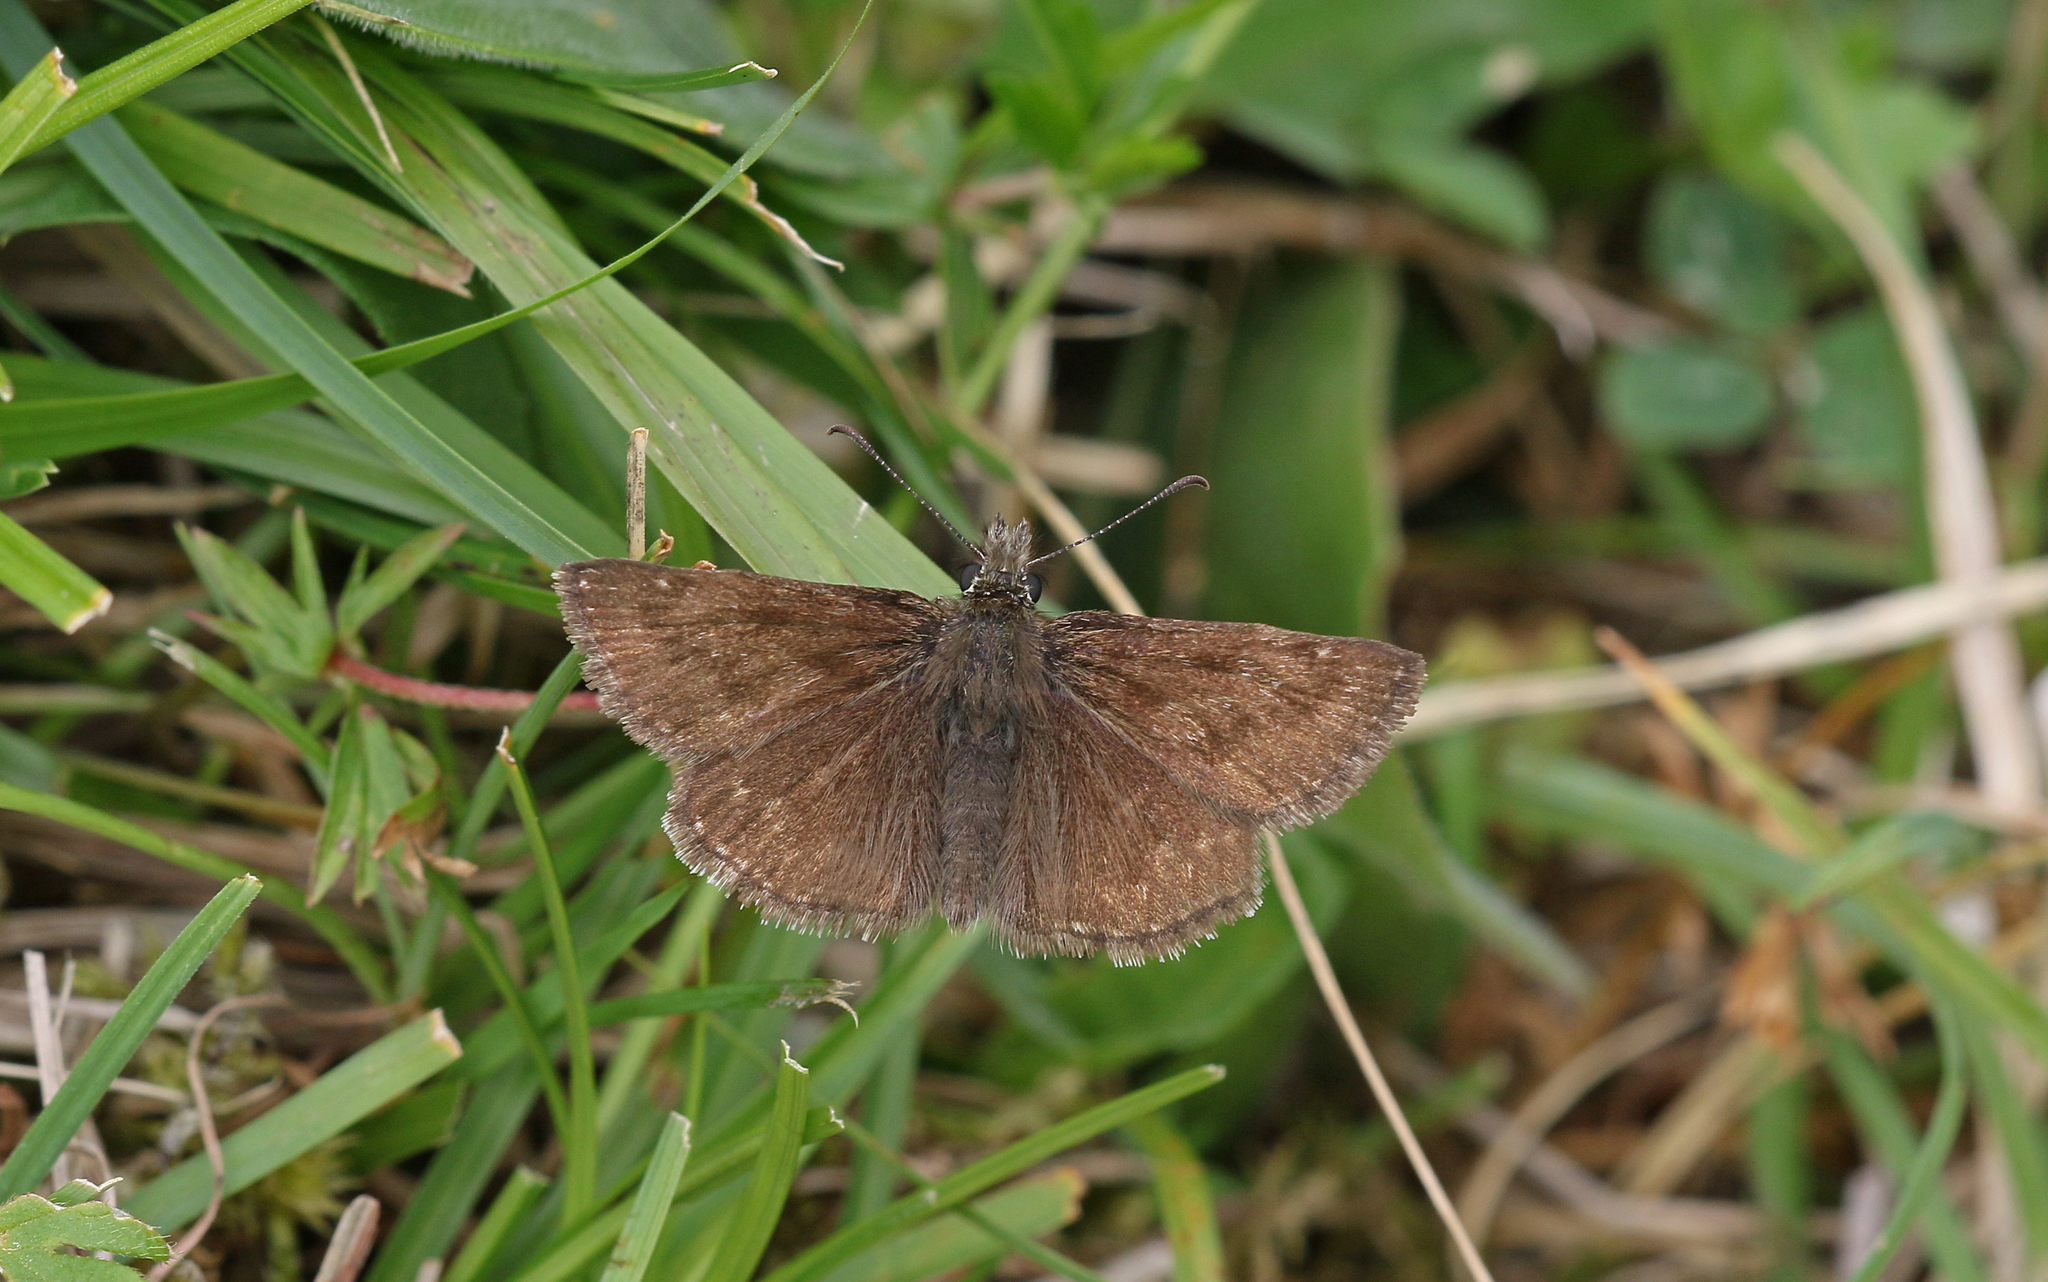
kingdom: Animalia
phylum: Arthropoda
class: Insecta
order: Lepidoptera
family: Hesperiidae
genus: Erynnis
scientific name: Erynnis tages
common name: Dingy skipper
